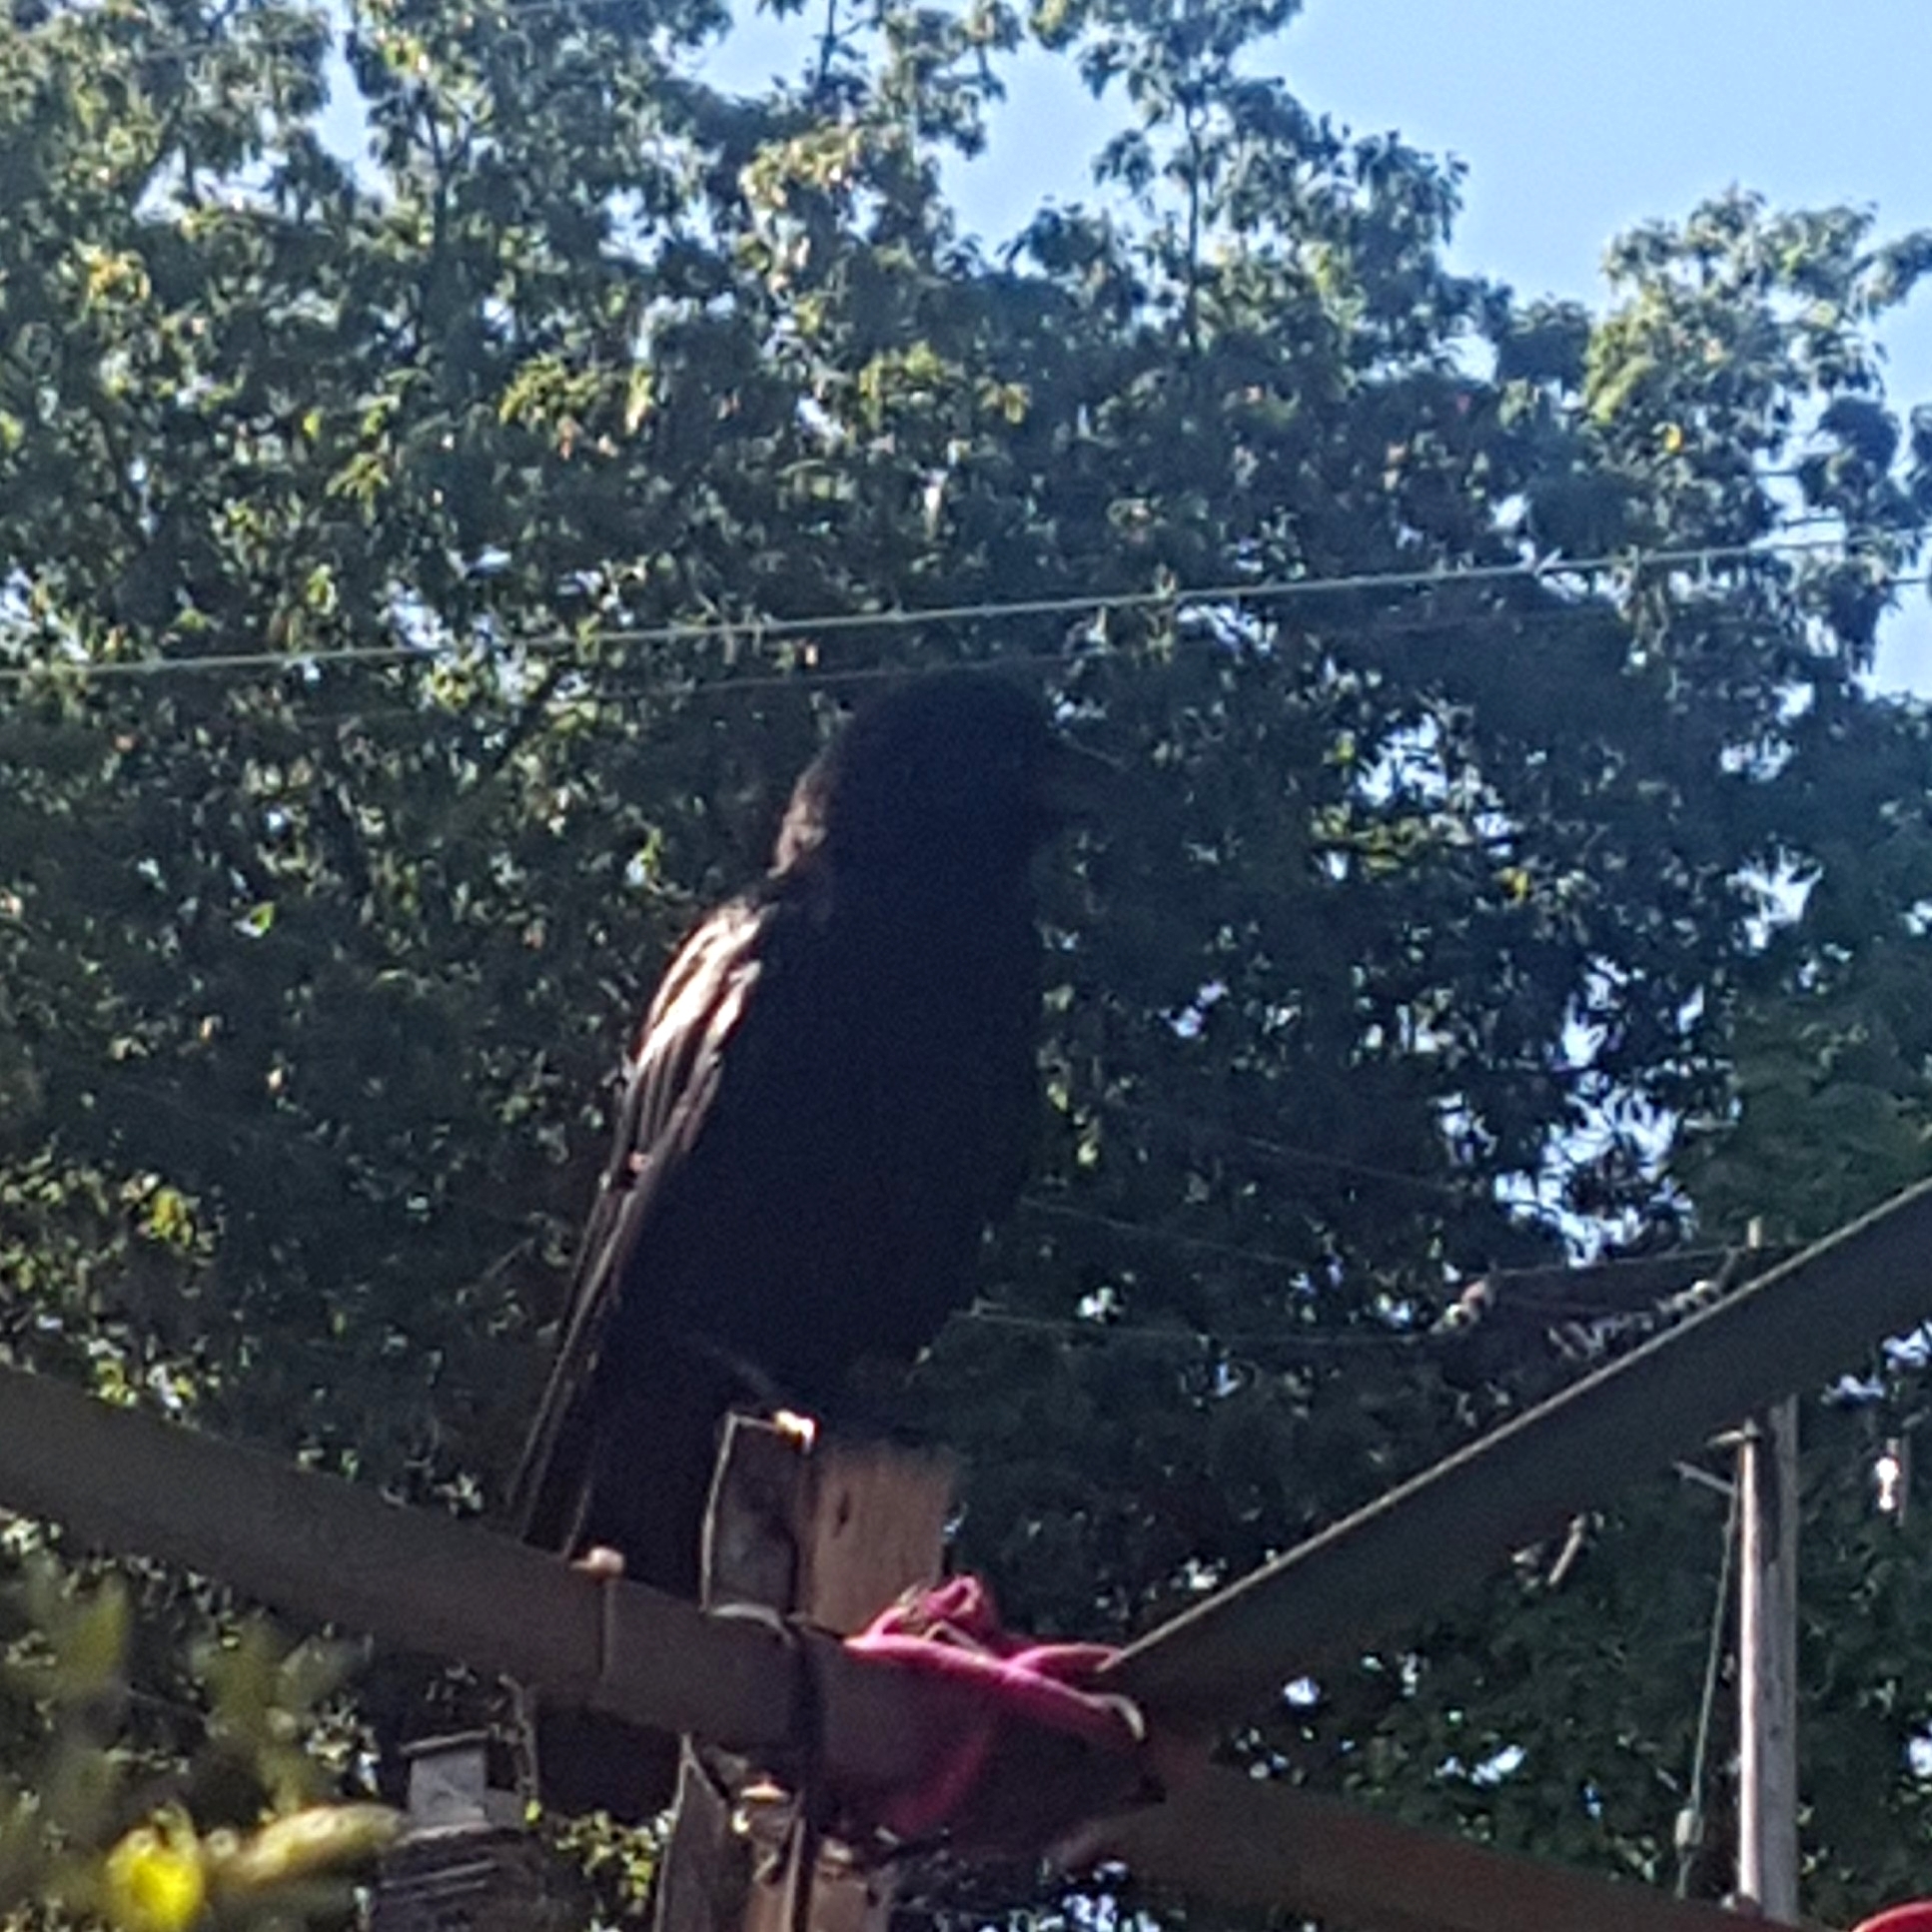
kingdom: Animalia
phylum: Chordata
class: Aves
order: Passeriformes
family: Corvidae
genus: Corvus
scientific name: Corvus brachyrhynchos
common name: American crow
